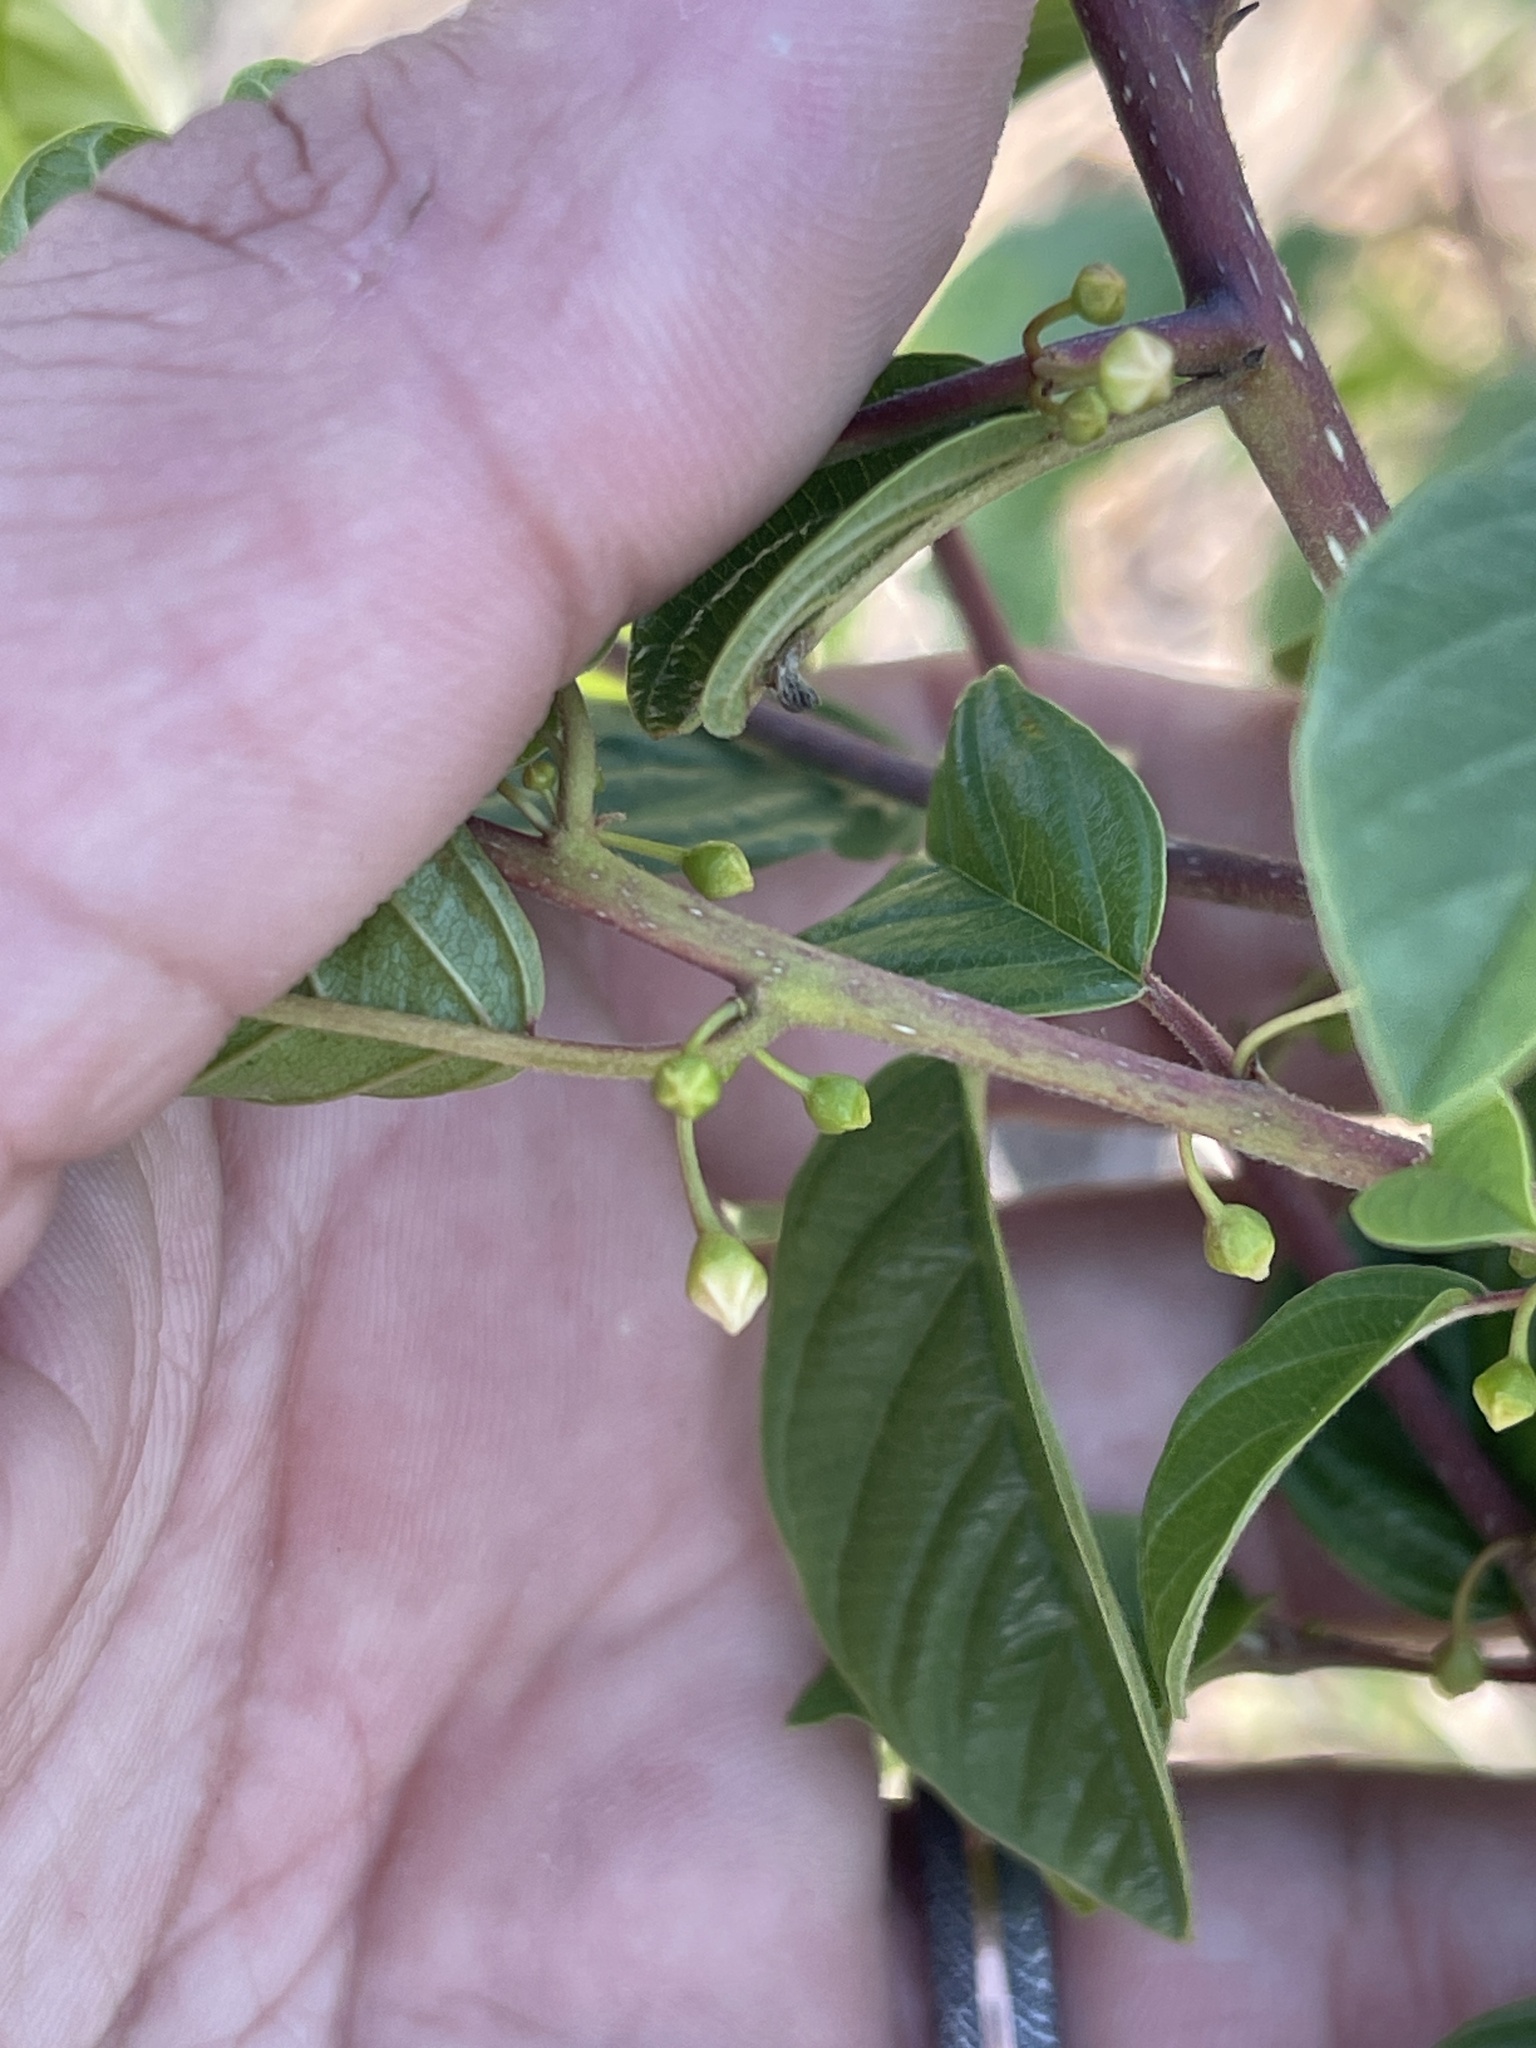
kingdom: Plantae
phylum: Tracheophyta
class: Magnoliopsida
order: Rosales
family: Rhamnaceae
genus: Frangula
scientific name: Frangula alnus
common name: Alder buckthorn
